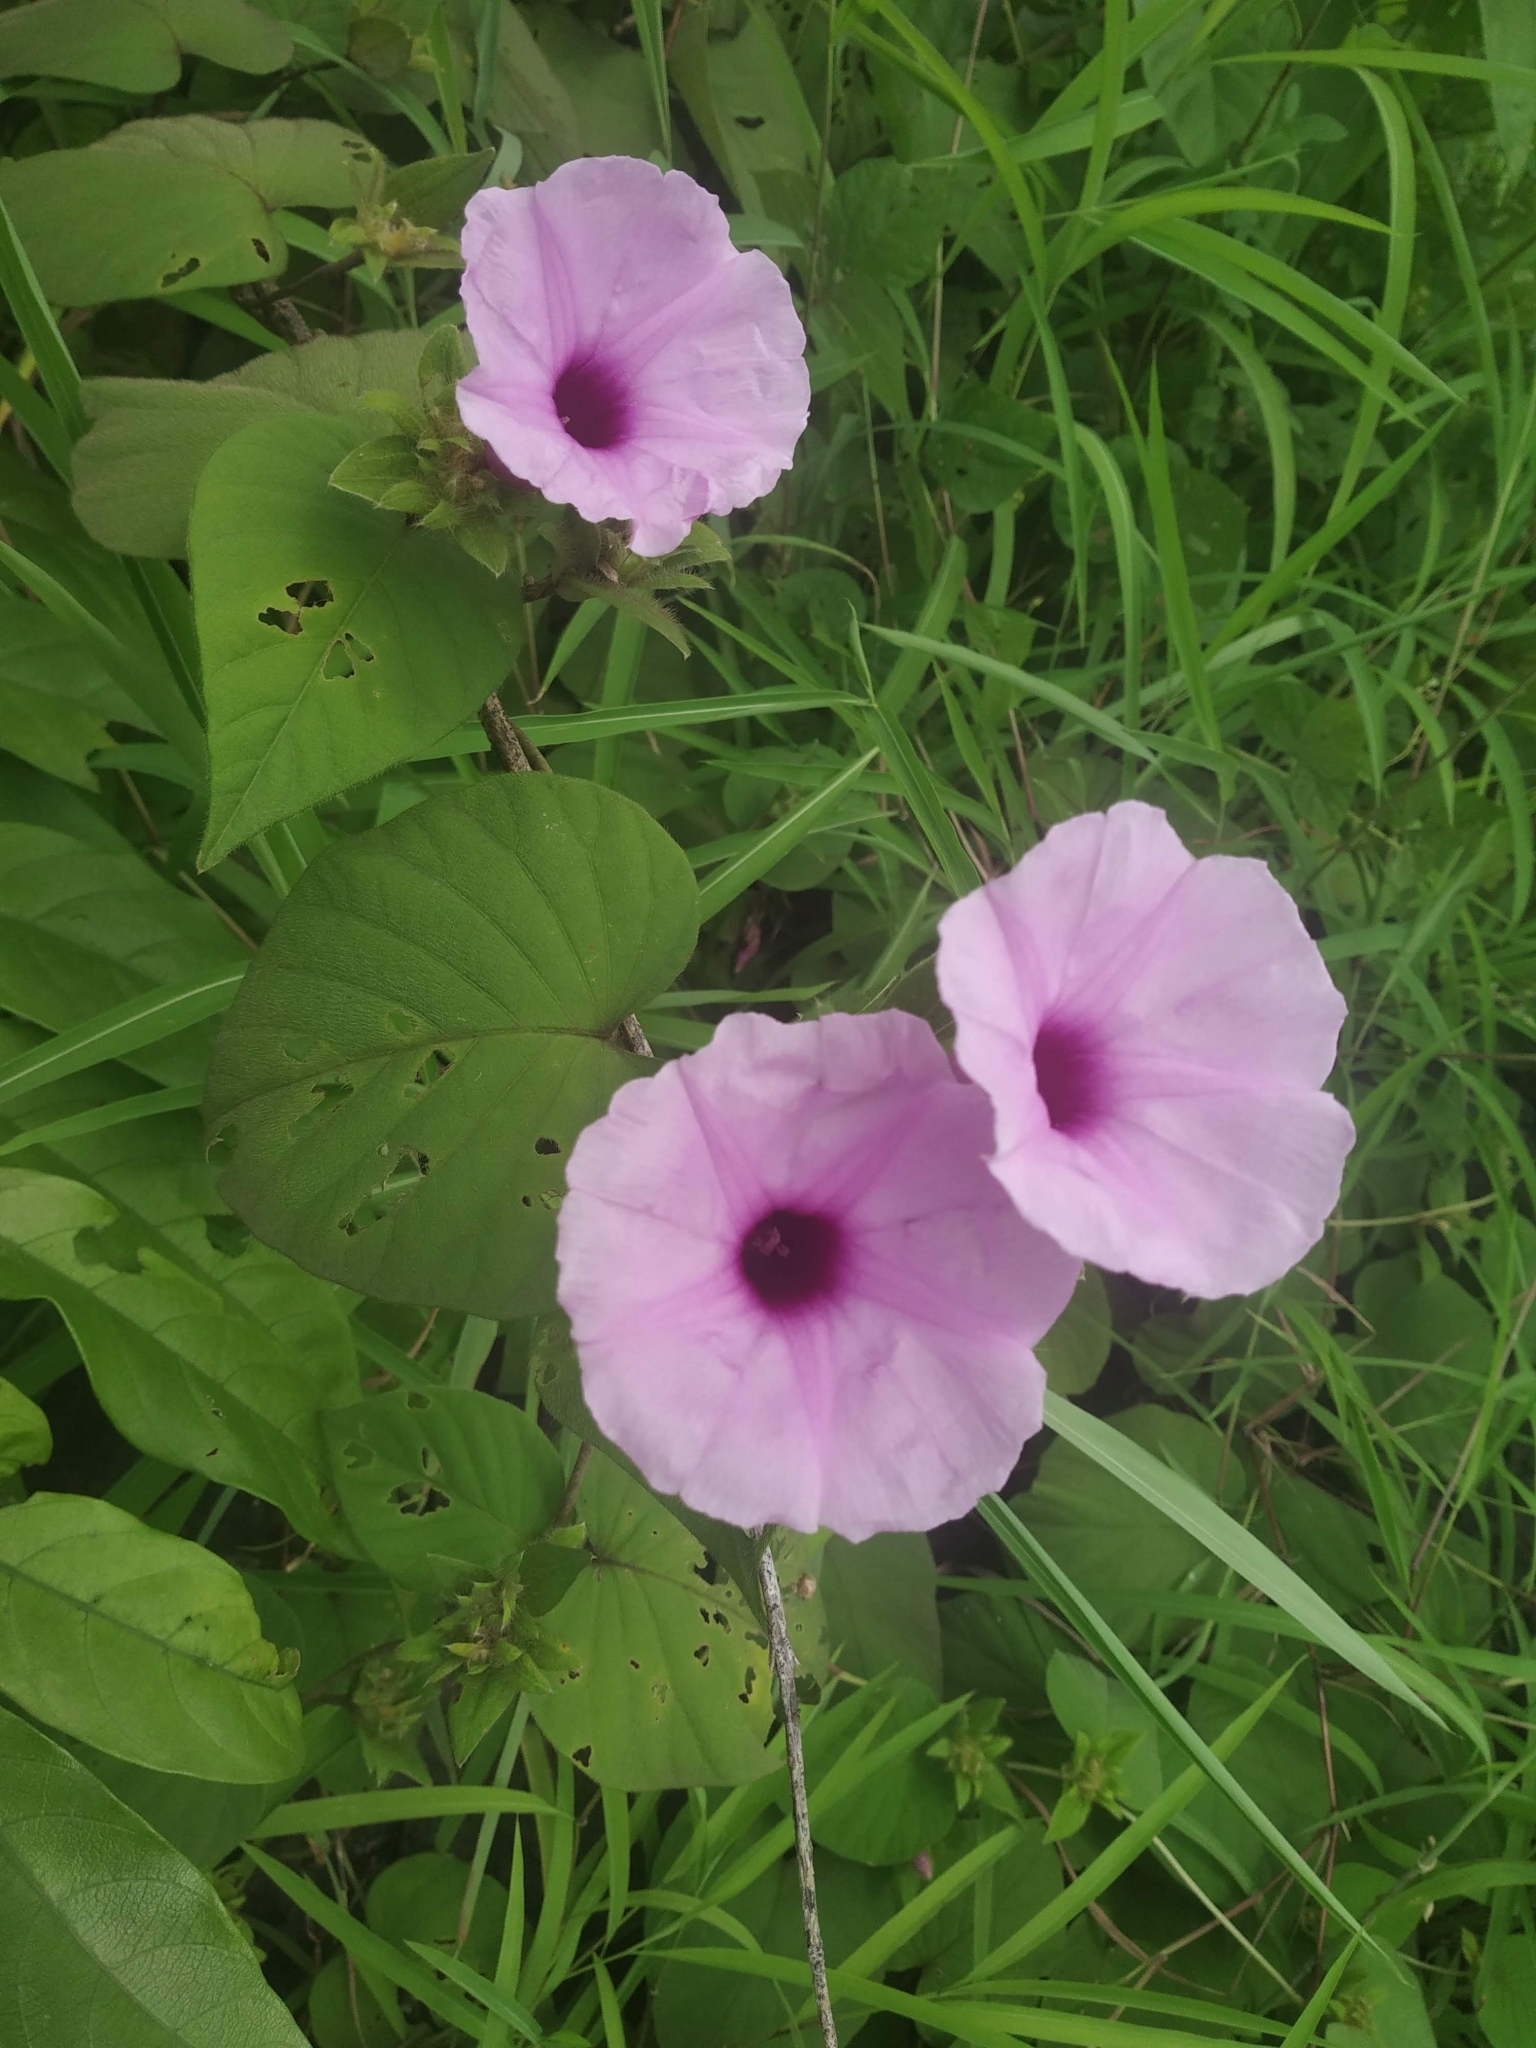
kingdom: Plantae
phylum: Tracheophyta
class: Magnoliopsida
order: Solanales
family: Convolvulaceae
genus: Argyreia
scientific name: Argyreia sericea
